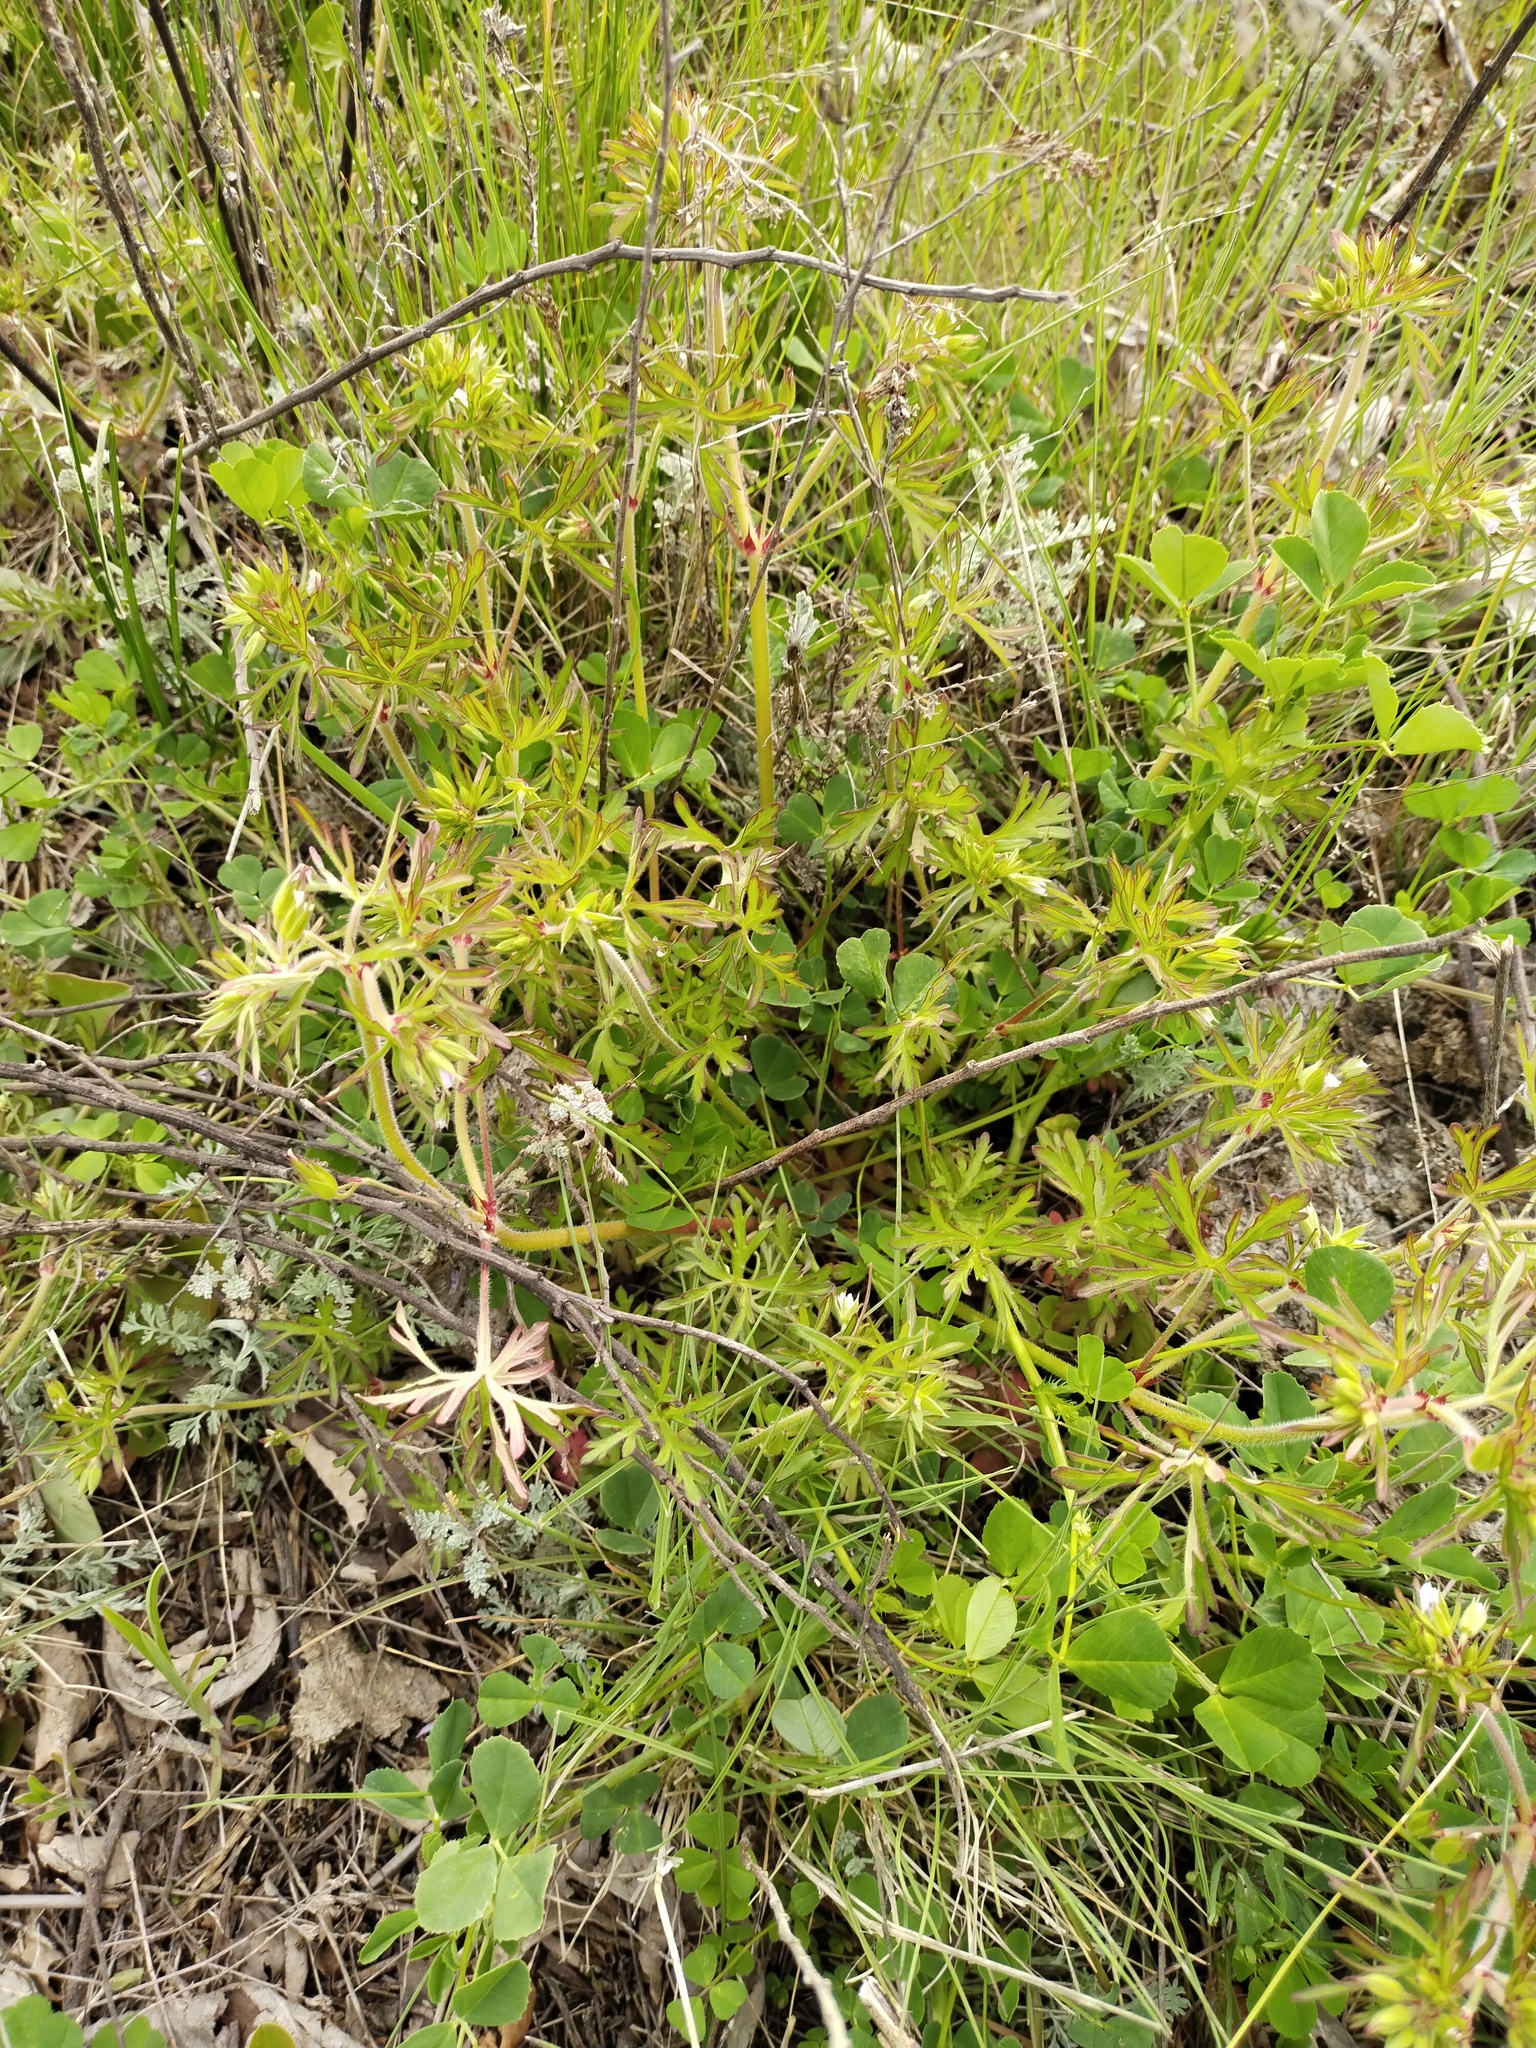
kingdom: Plantae
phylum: Tracheophyta
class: Magnoliopsida
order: Geraniales
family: Geraniaceae
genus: Geranium
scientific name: Geranium dissectum
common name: Cut-leaved crane's-bill
